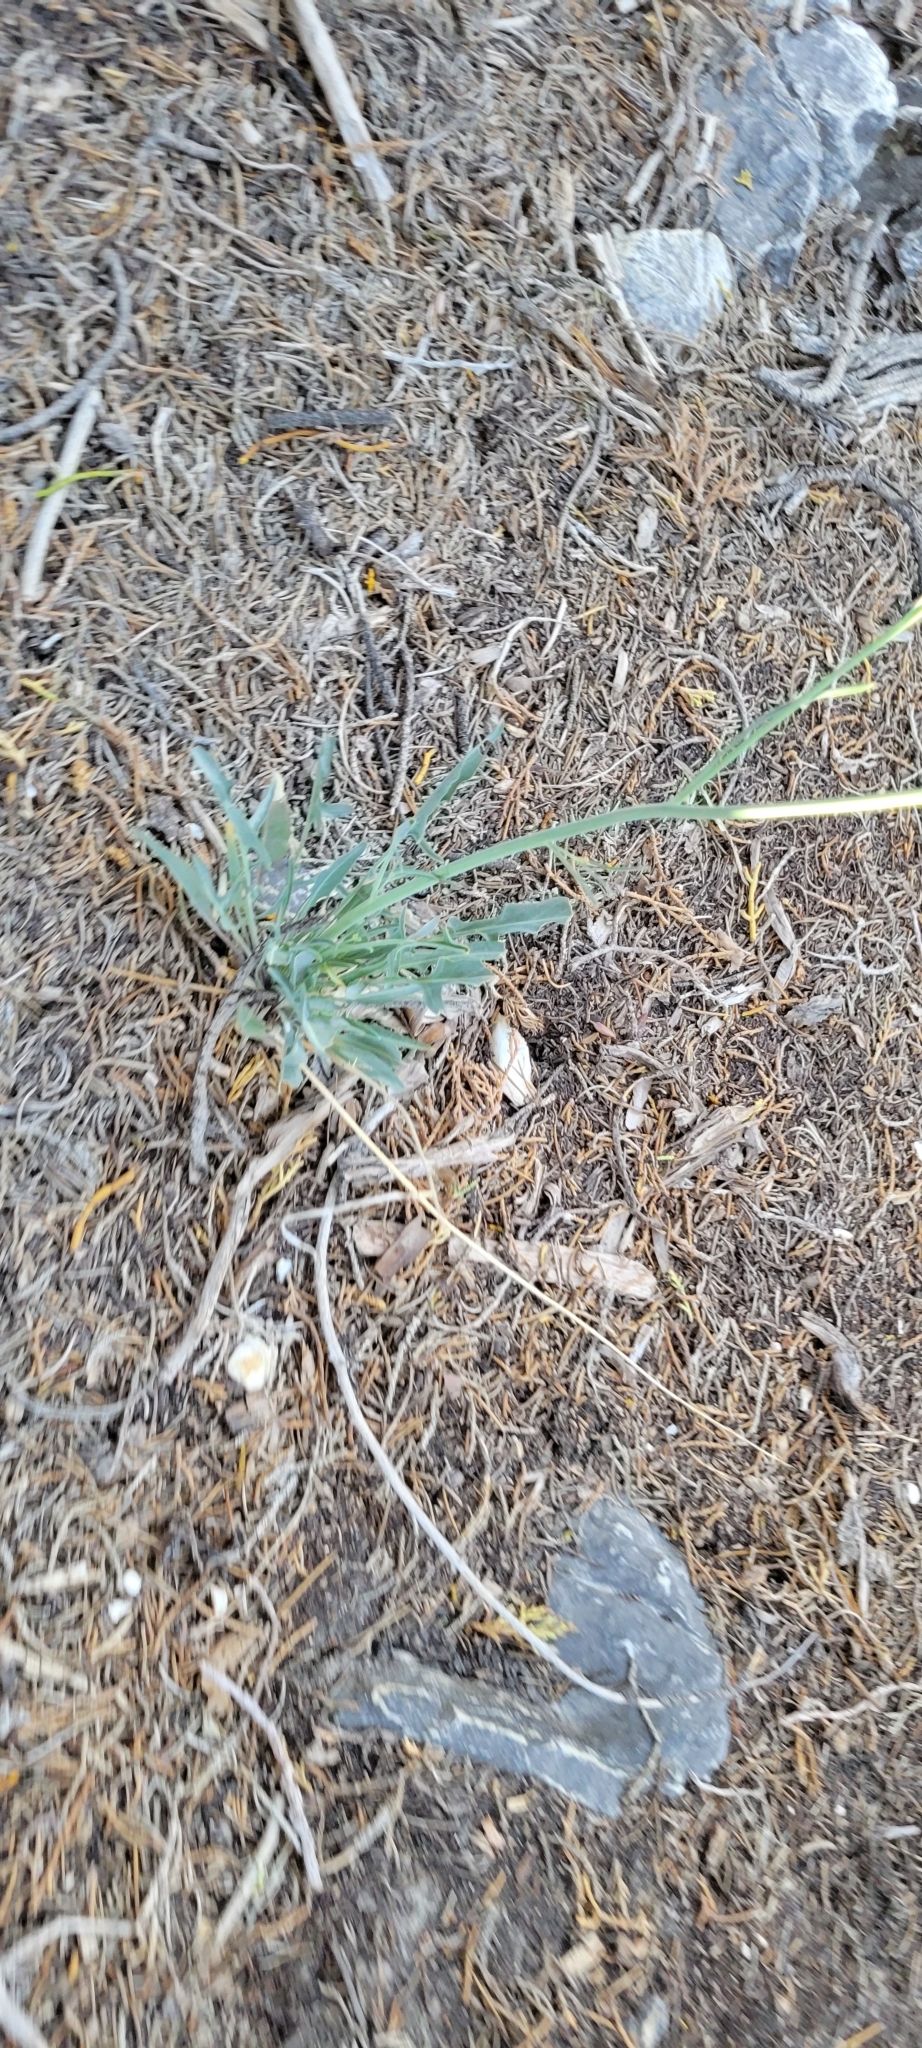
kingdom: Plantae
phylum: Tracheophyta
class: Magnoliopsida
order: Brassicales
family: Brassicaceae
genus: Streptanthus
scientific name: Streptanthus major
